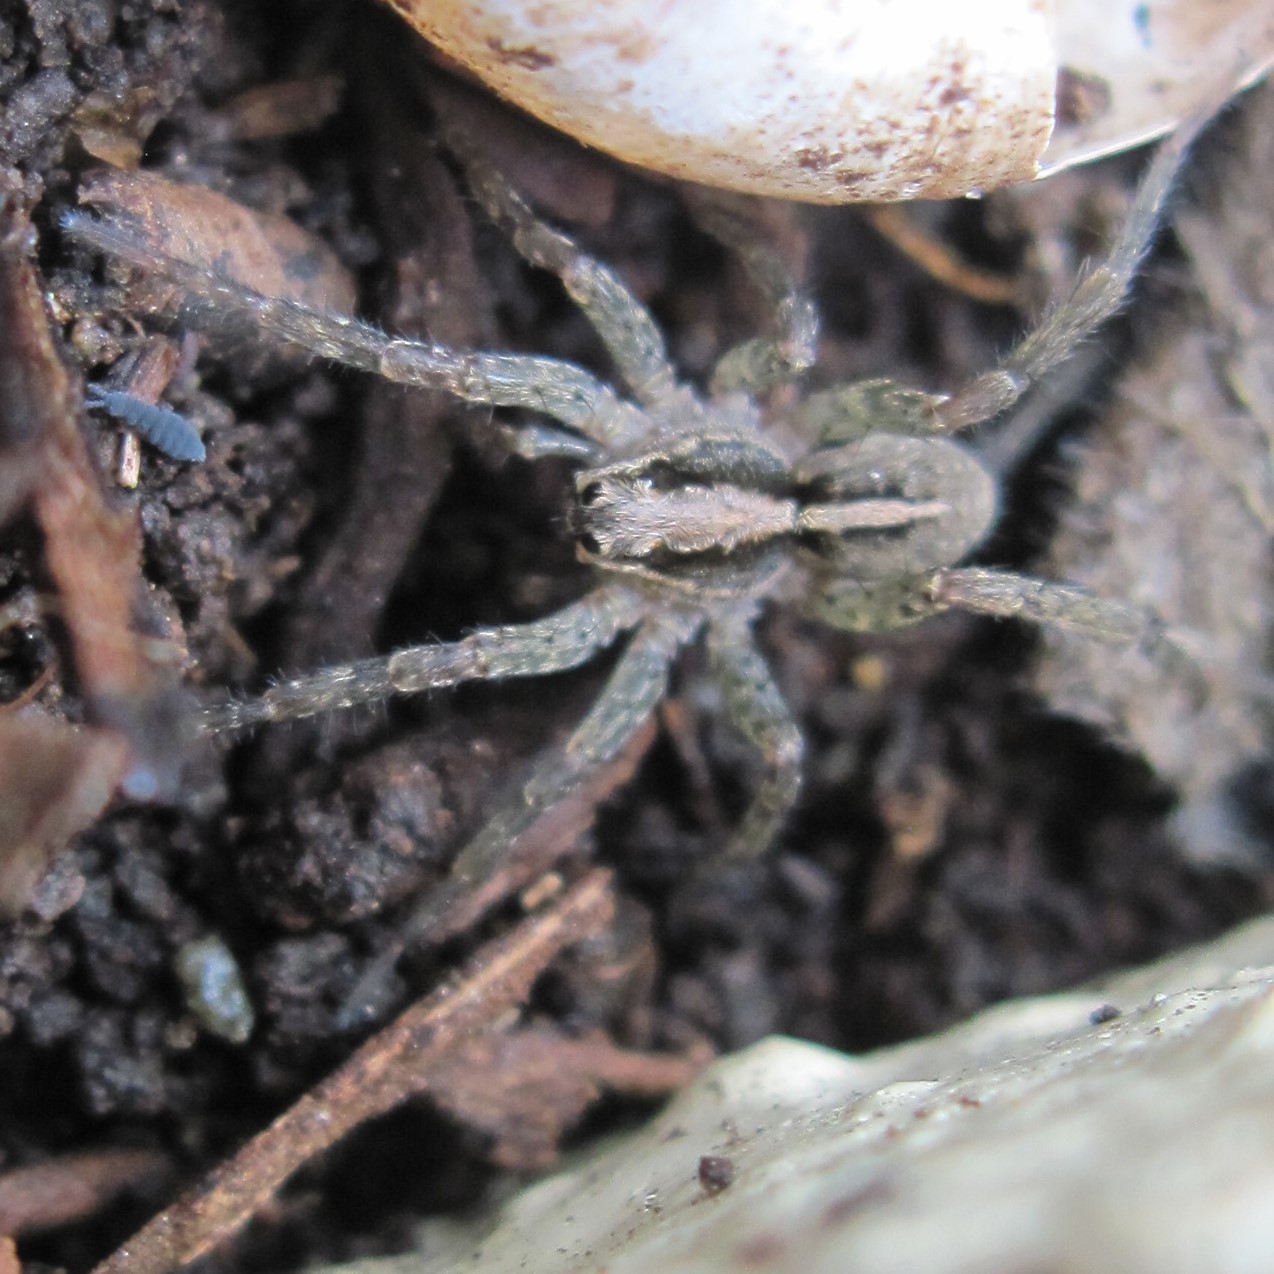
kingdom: Animalia
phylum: Arthropoda
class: Arachnida
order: Araneae
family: Lycosidae
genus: Anoteropsis
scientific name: Anoteropsis hilaris
